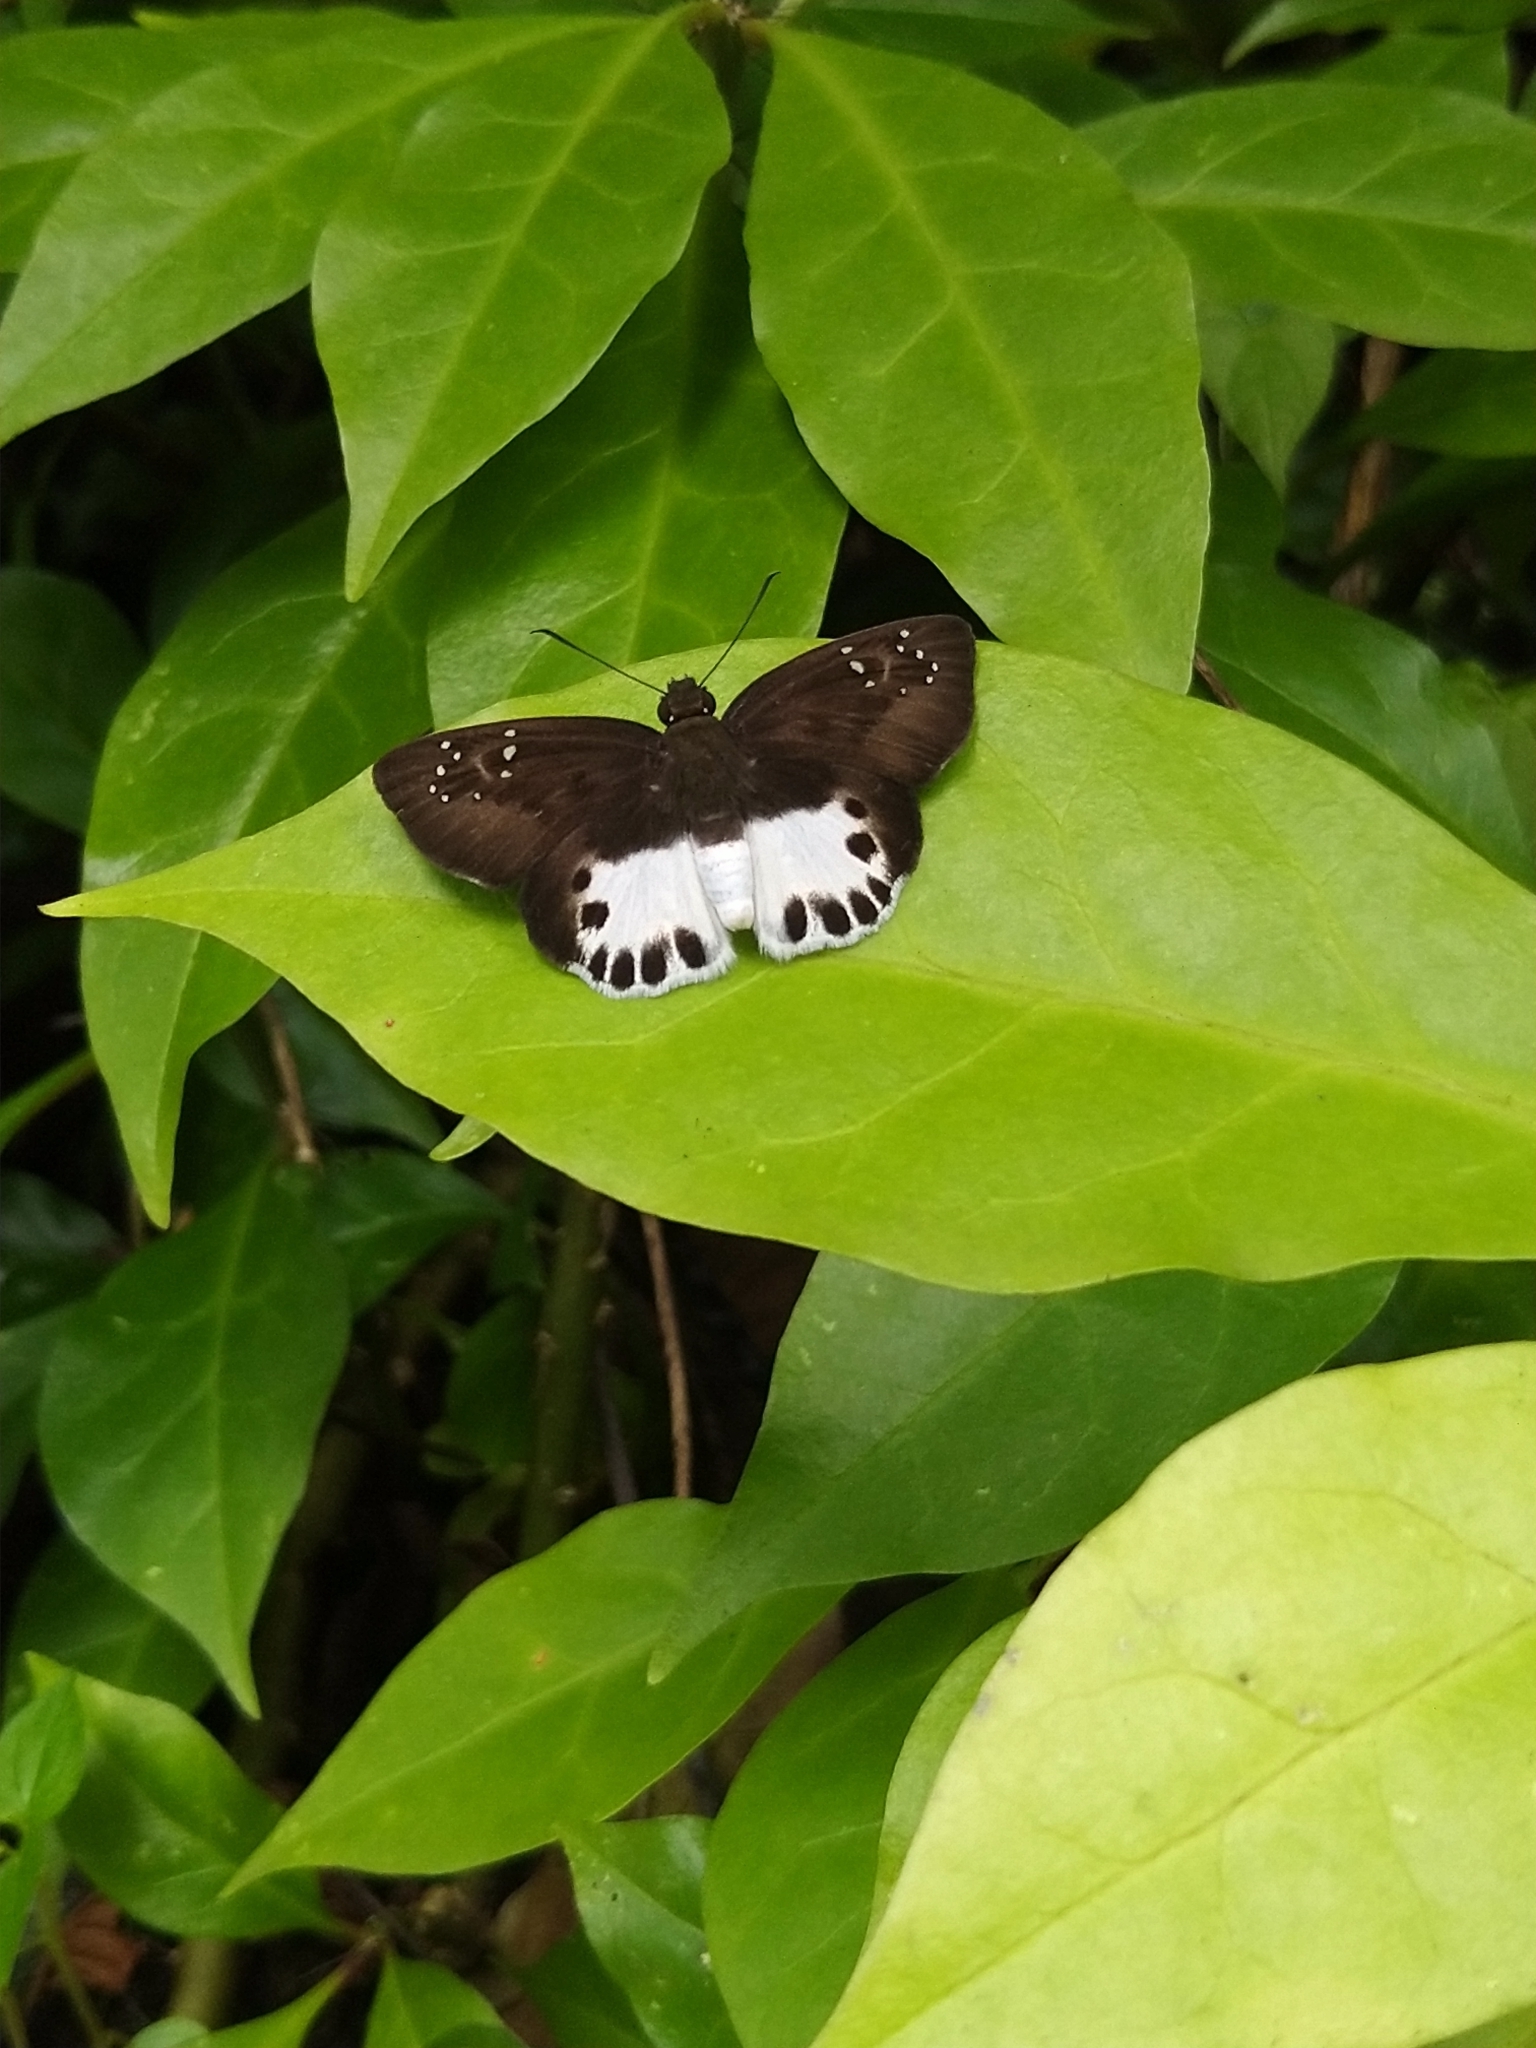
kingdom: Animalia
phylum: Arthropoda
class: Insecta
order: Lepidoptera
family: Hesperiidae
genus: Tagiades
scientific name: Tagiades litigiosa
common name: Water snow flat
